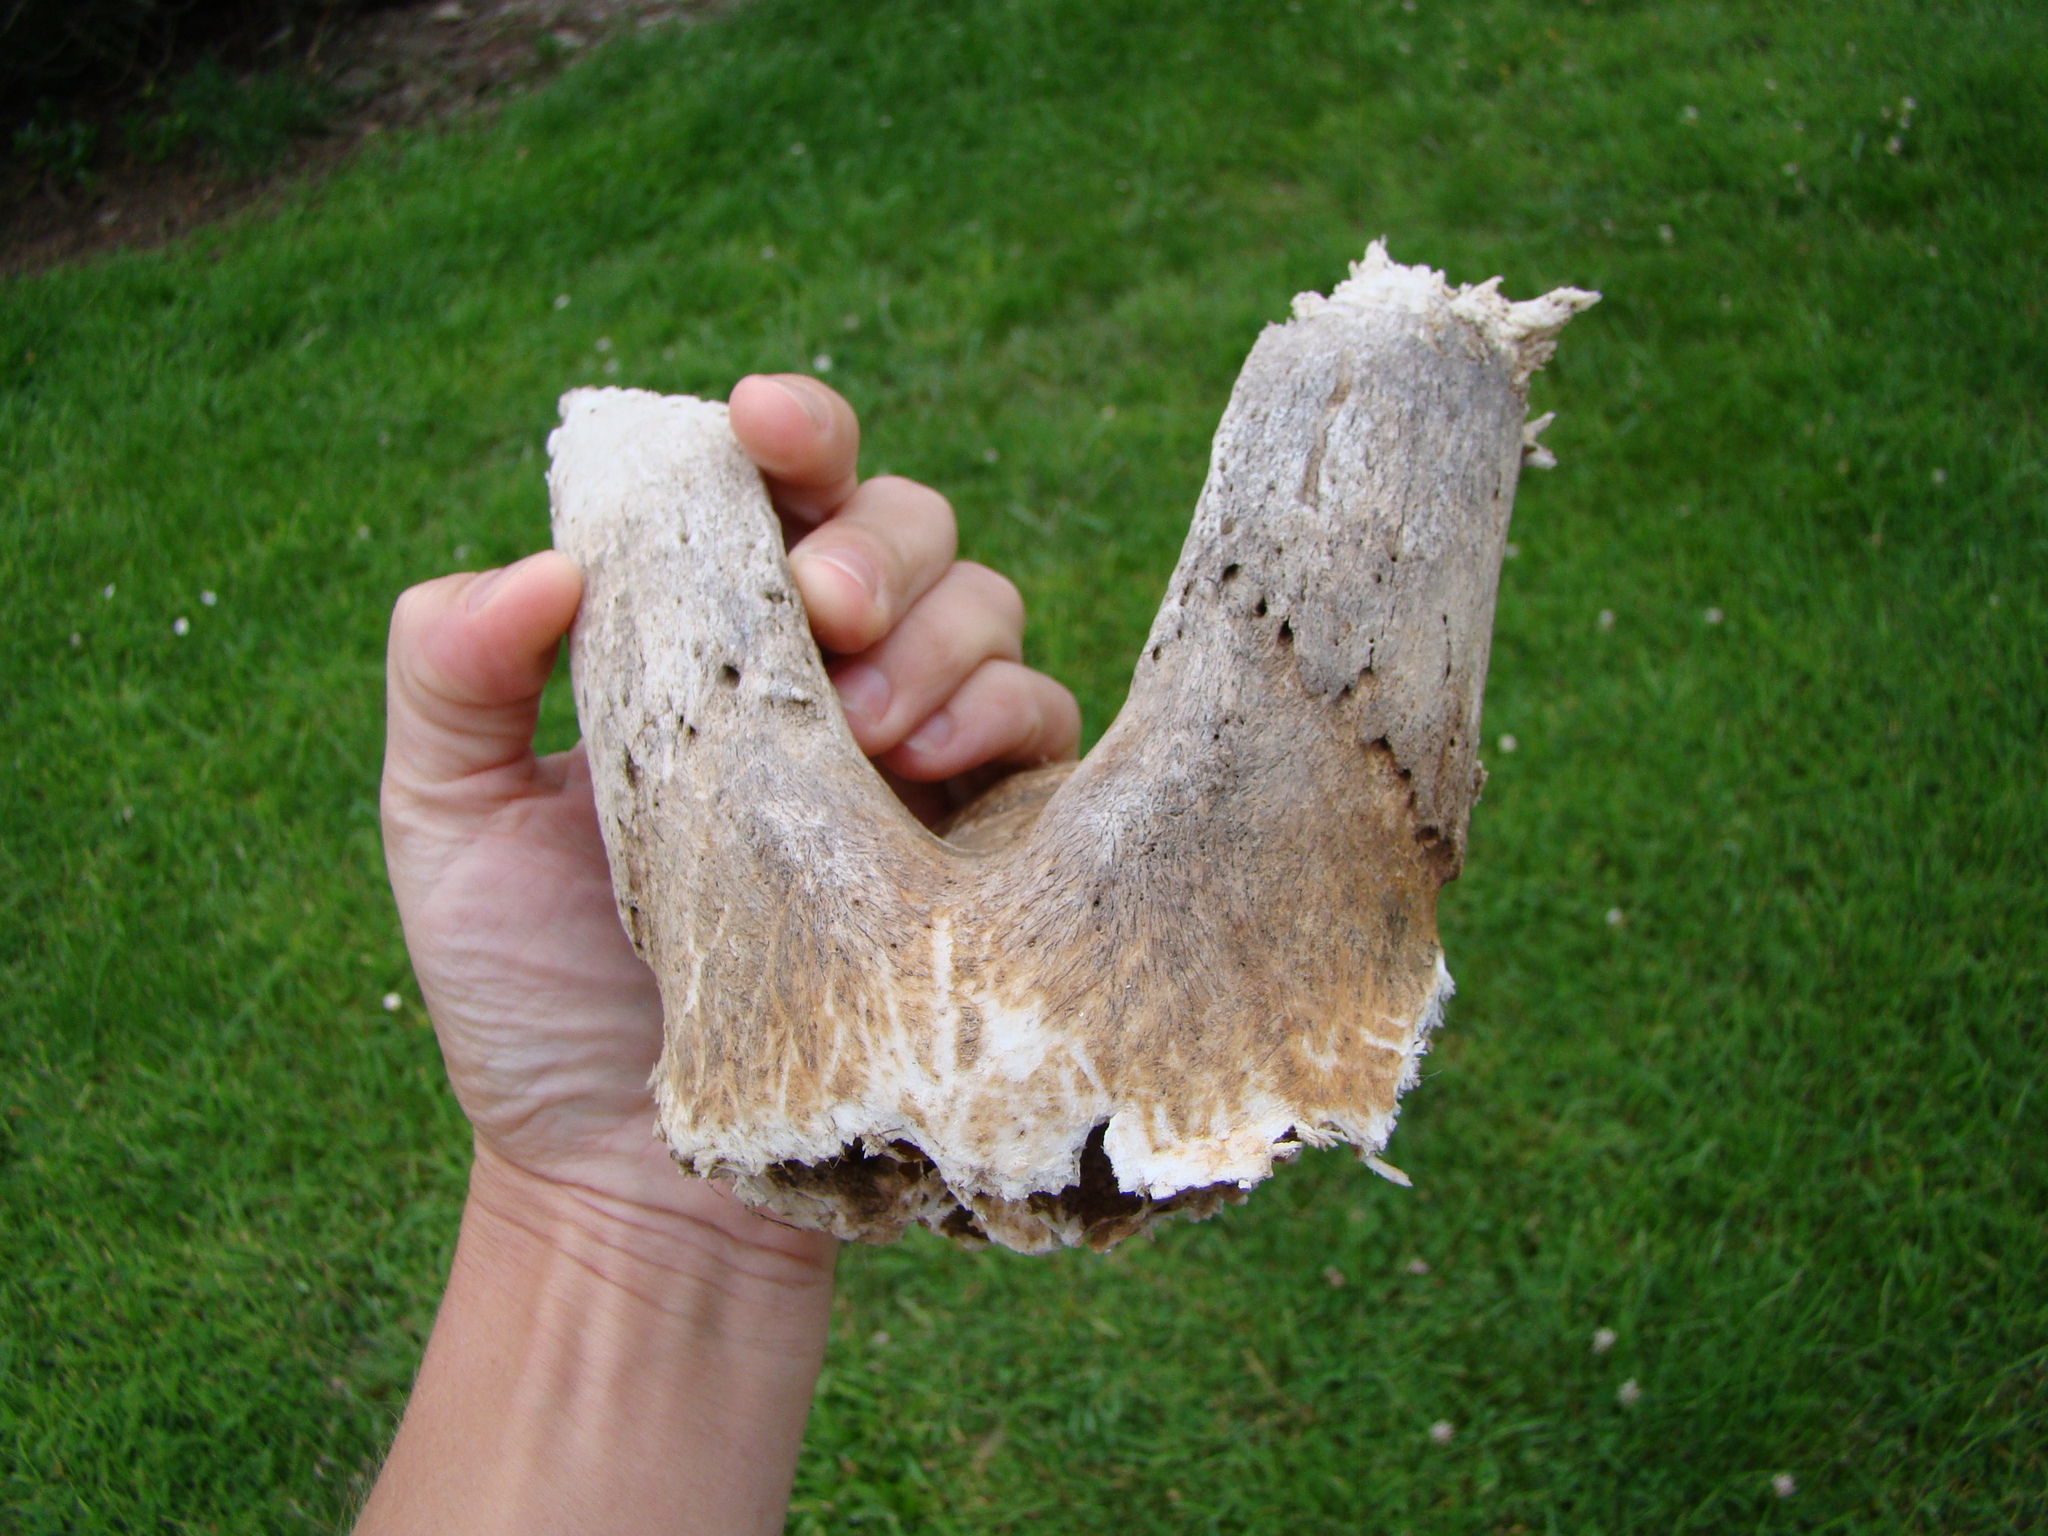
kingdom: Animalia
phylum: Chordata
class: Mammalia
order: Artiodactyla
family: Bovidae
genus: Capra
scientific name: Capra hircus
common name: Domestic goat
